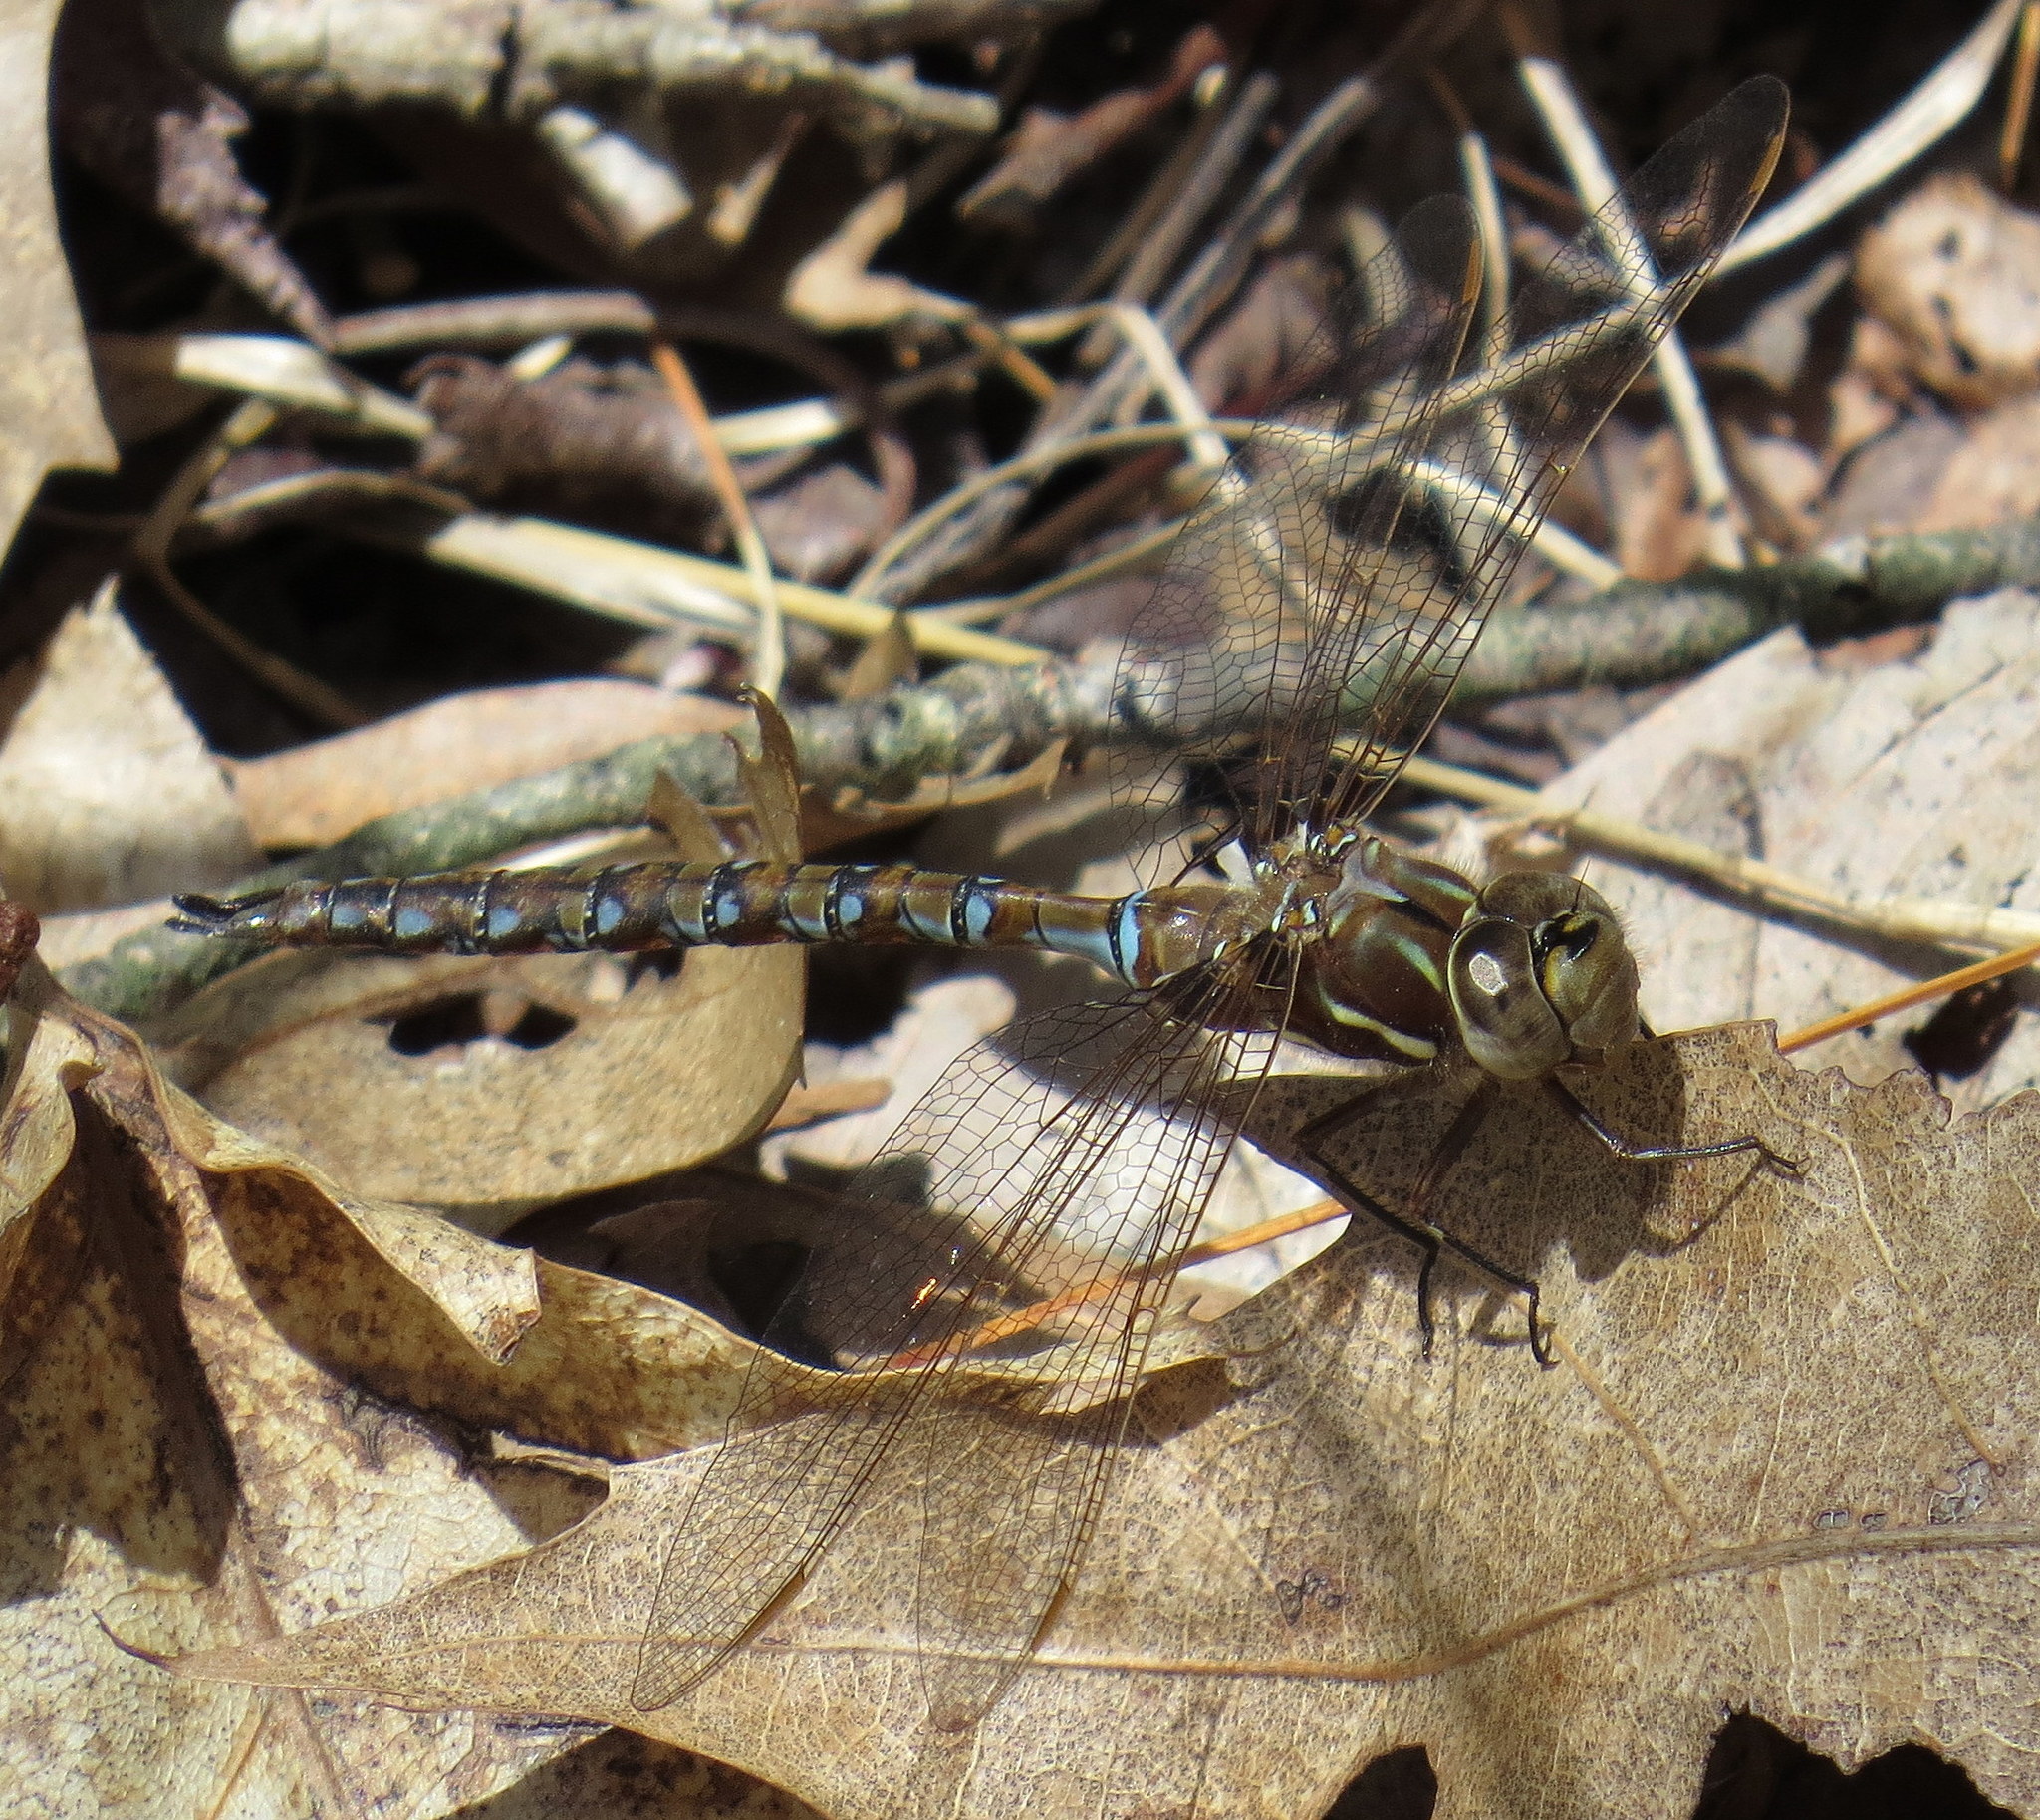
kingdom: Animalia
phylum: Arthropoda
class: Insecta
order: Odonata
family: Aeshnidae
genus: Basiaeschna
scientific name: Basiaeschna janata
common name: Springtime darner
